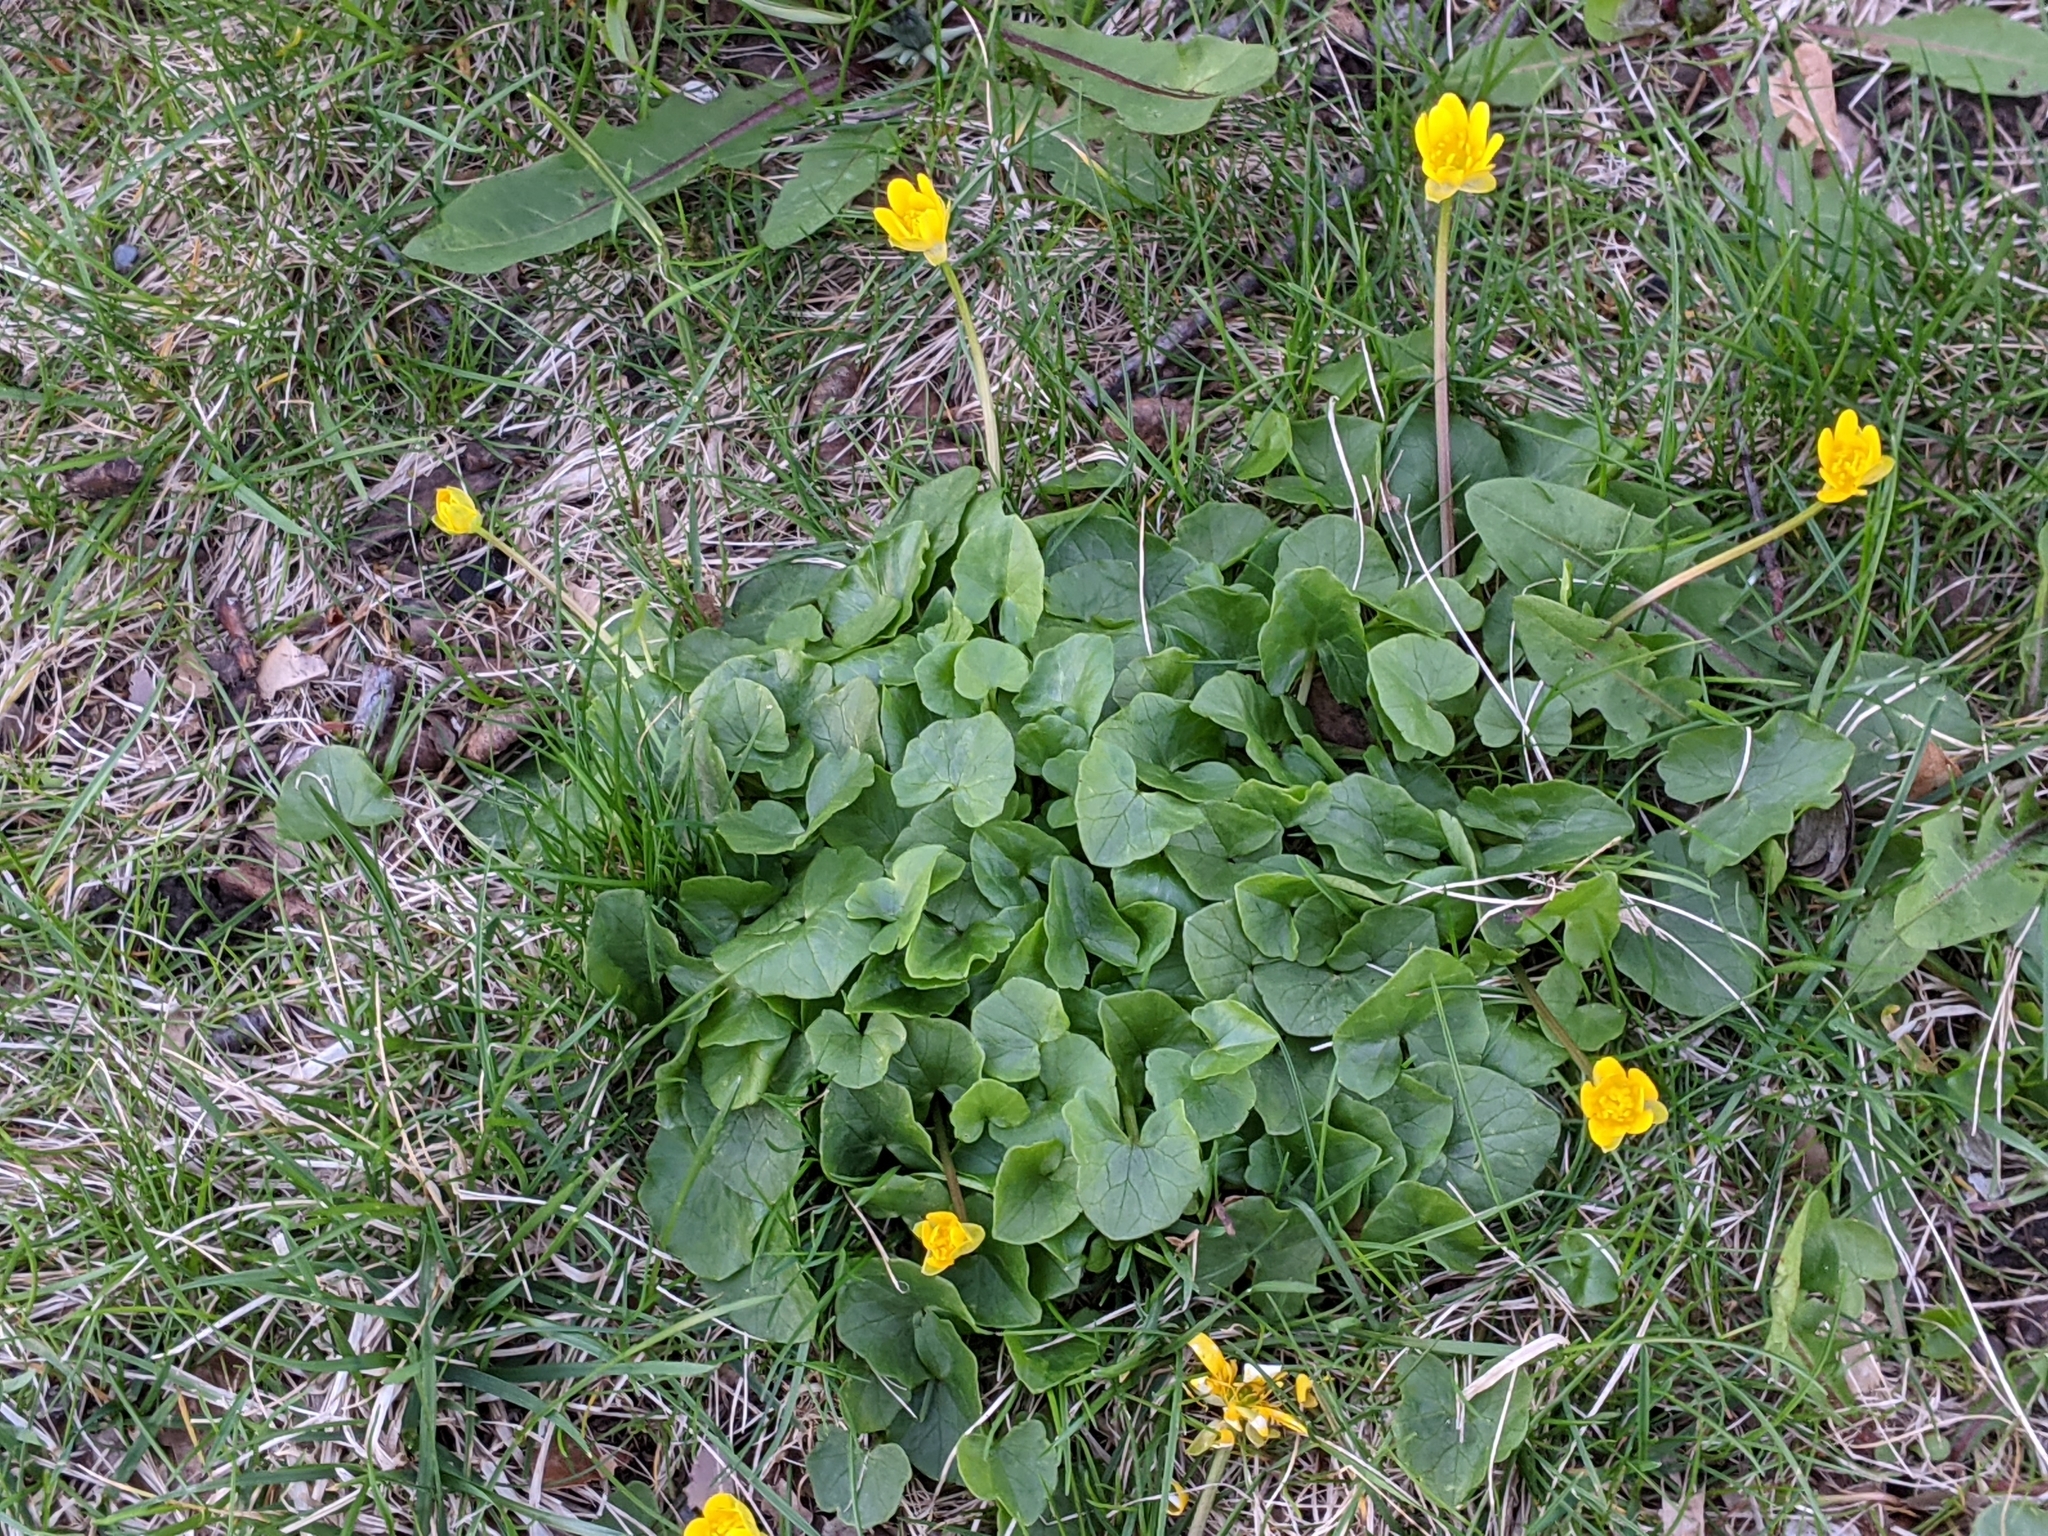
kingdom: Plantae
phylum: Tracheophyta
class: Magnoliopsida
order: Ranunculales
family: Ranunculaceae
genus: Ficaria
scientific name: Ficaria verna
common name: Lesser celandine
